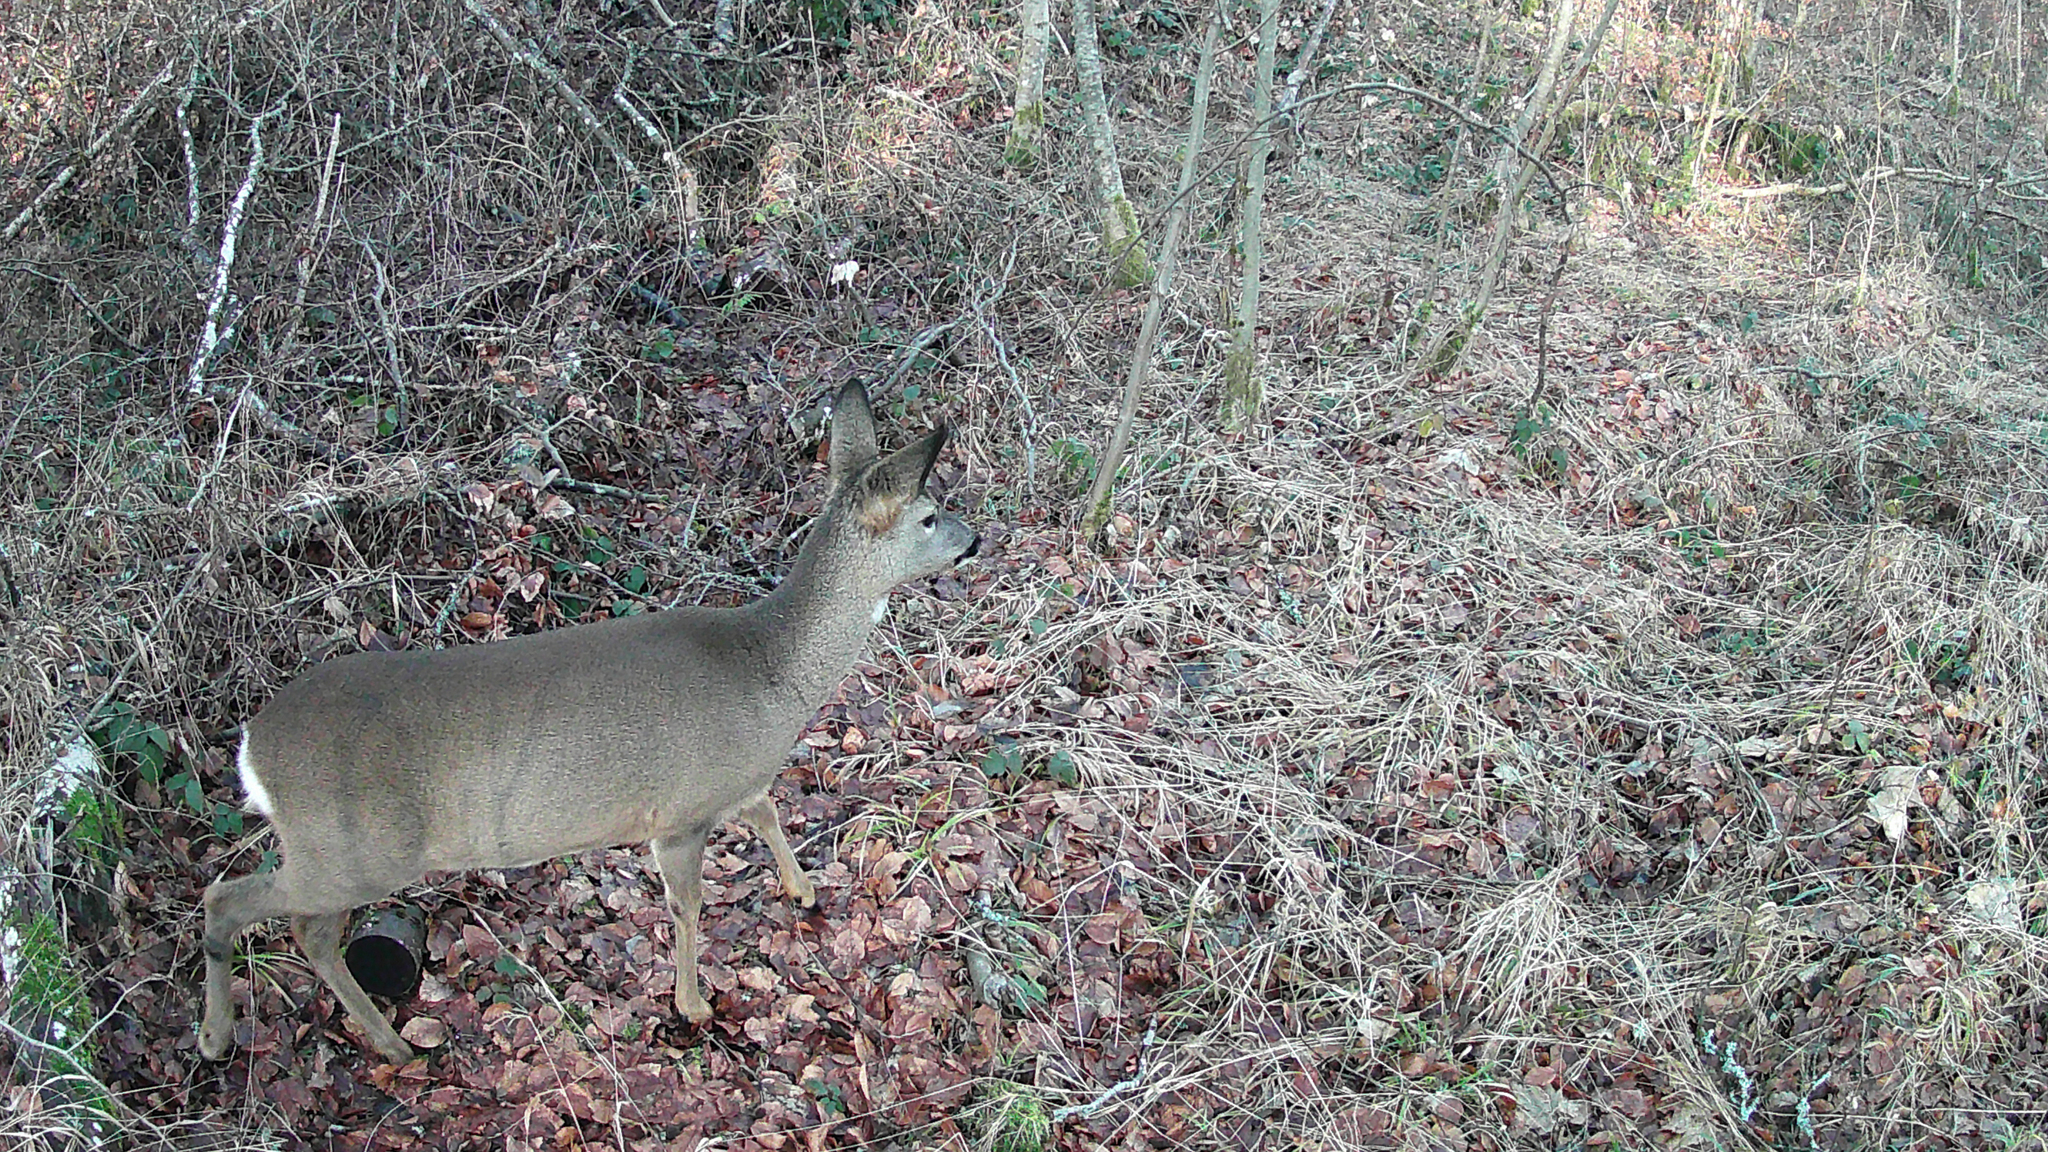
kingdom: Animalia
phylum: Chordata
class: Mammalia
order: Artiodactyla
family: Cervidae
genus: Capreolus
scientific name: Capreolus capreolus
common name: Western roe deer
